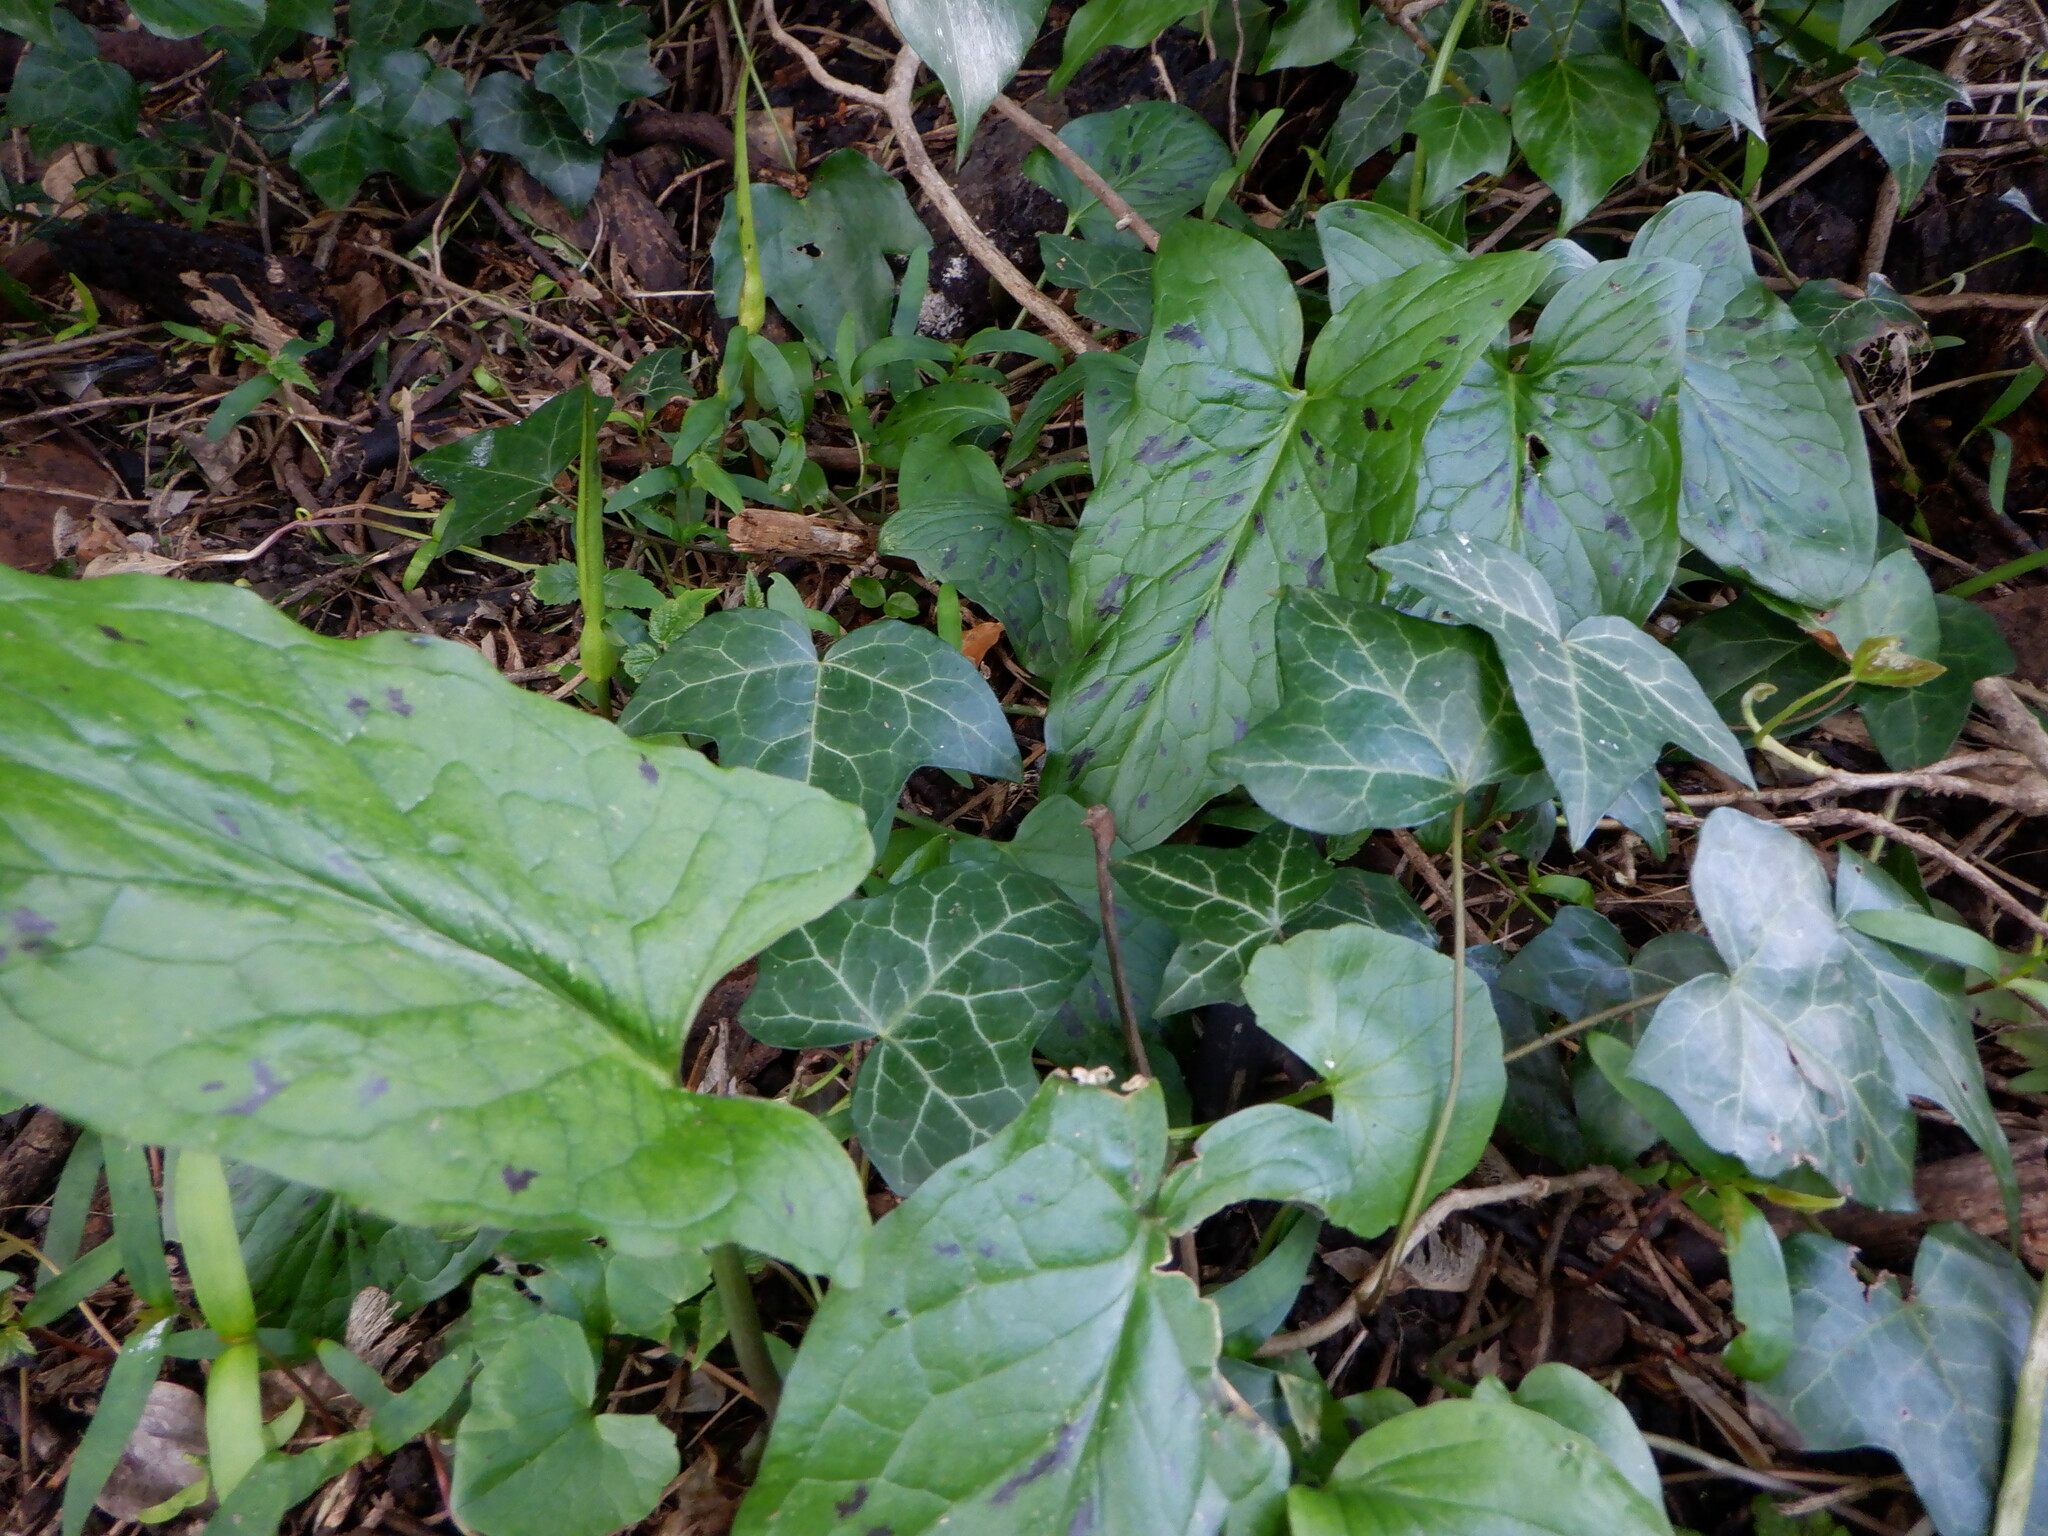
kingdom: Plantae
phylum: Tracheophyta
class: Liliopsida
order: Alismatales
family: Araceae
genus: Arum
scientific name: Arum maculatum
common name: Lords-and-ladies
